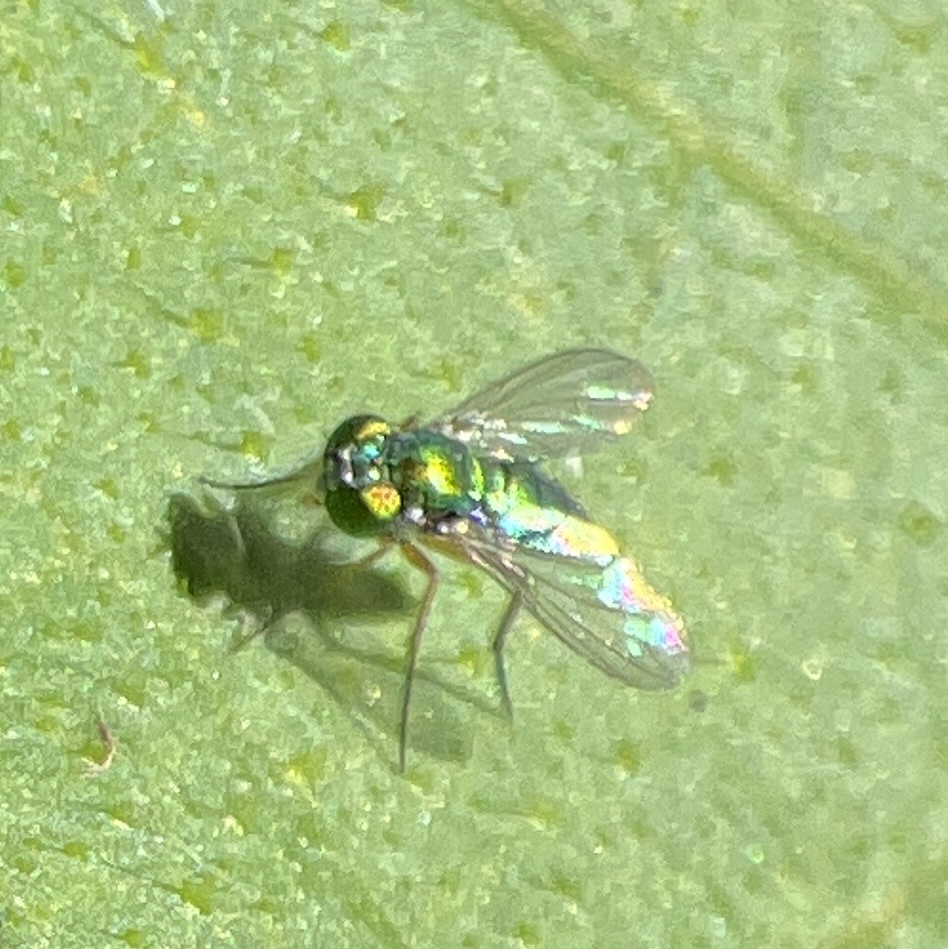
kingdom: Animalia
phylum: Arthropoda
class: Insecta
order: Diptera
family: Dolichopodidae
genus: Condylostylus
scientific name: Condylostylus
